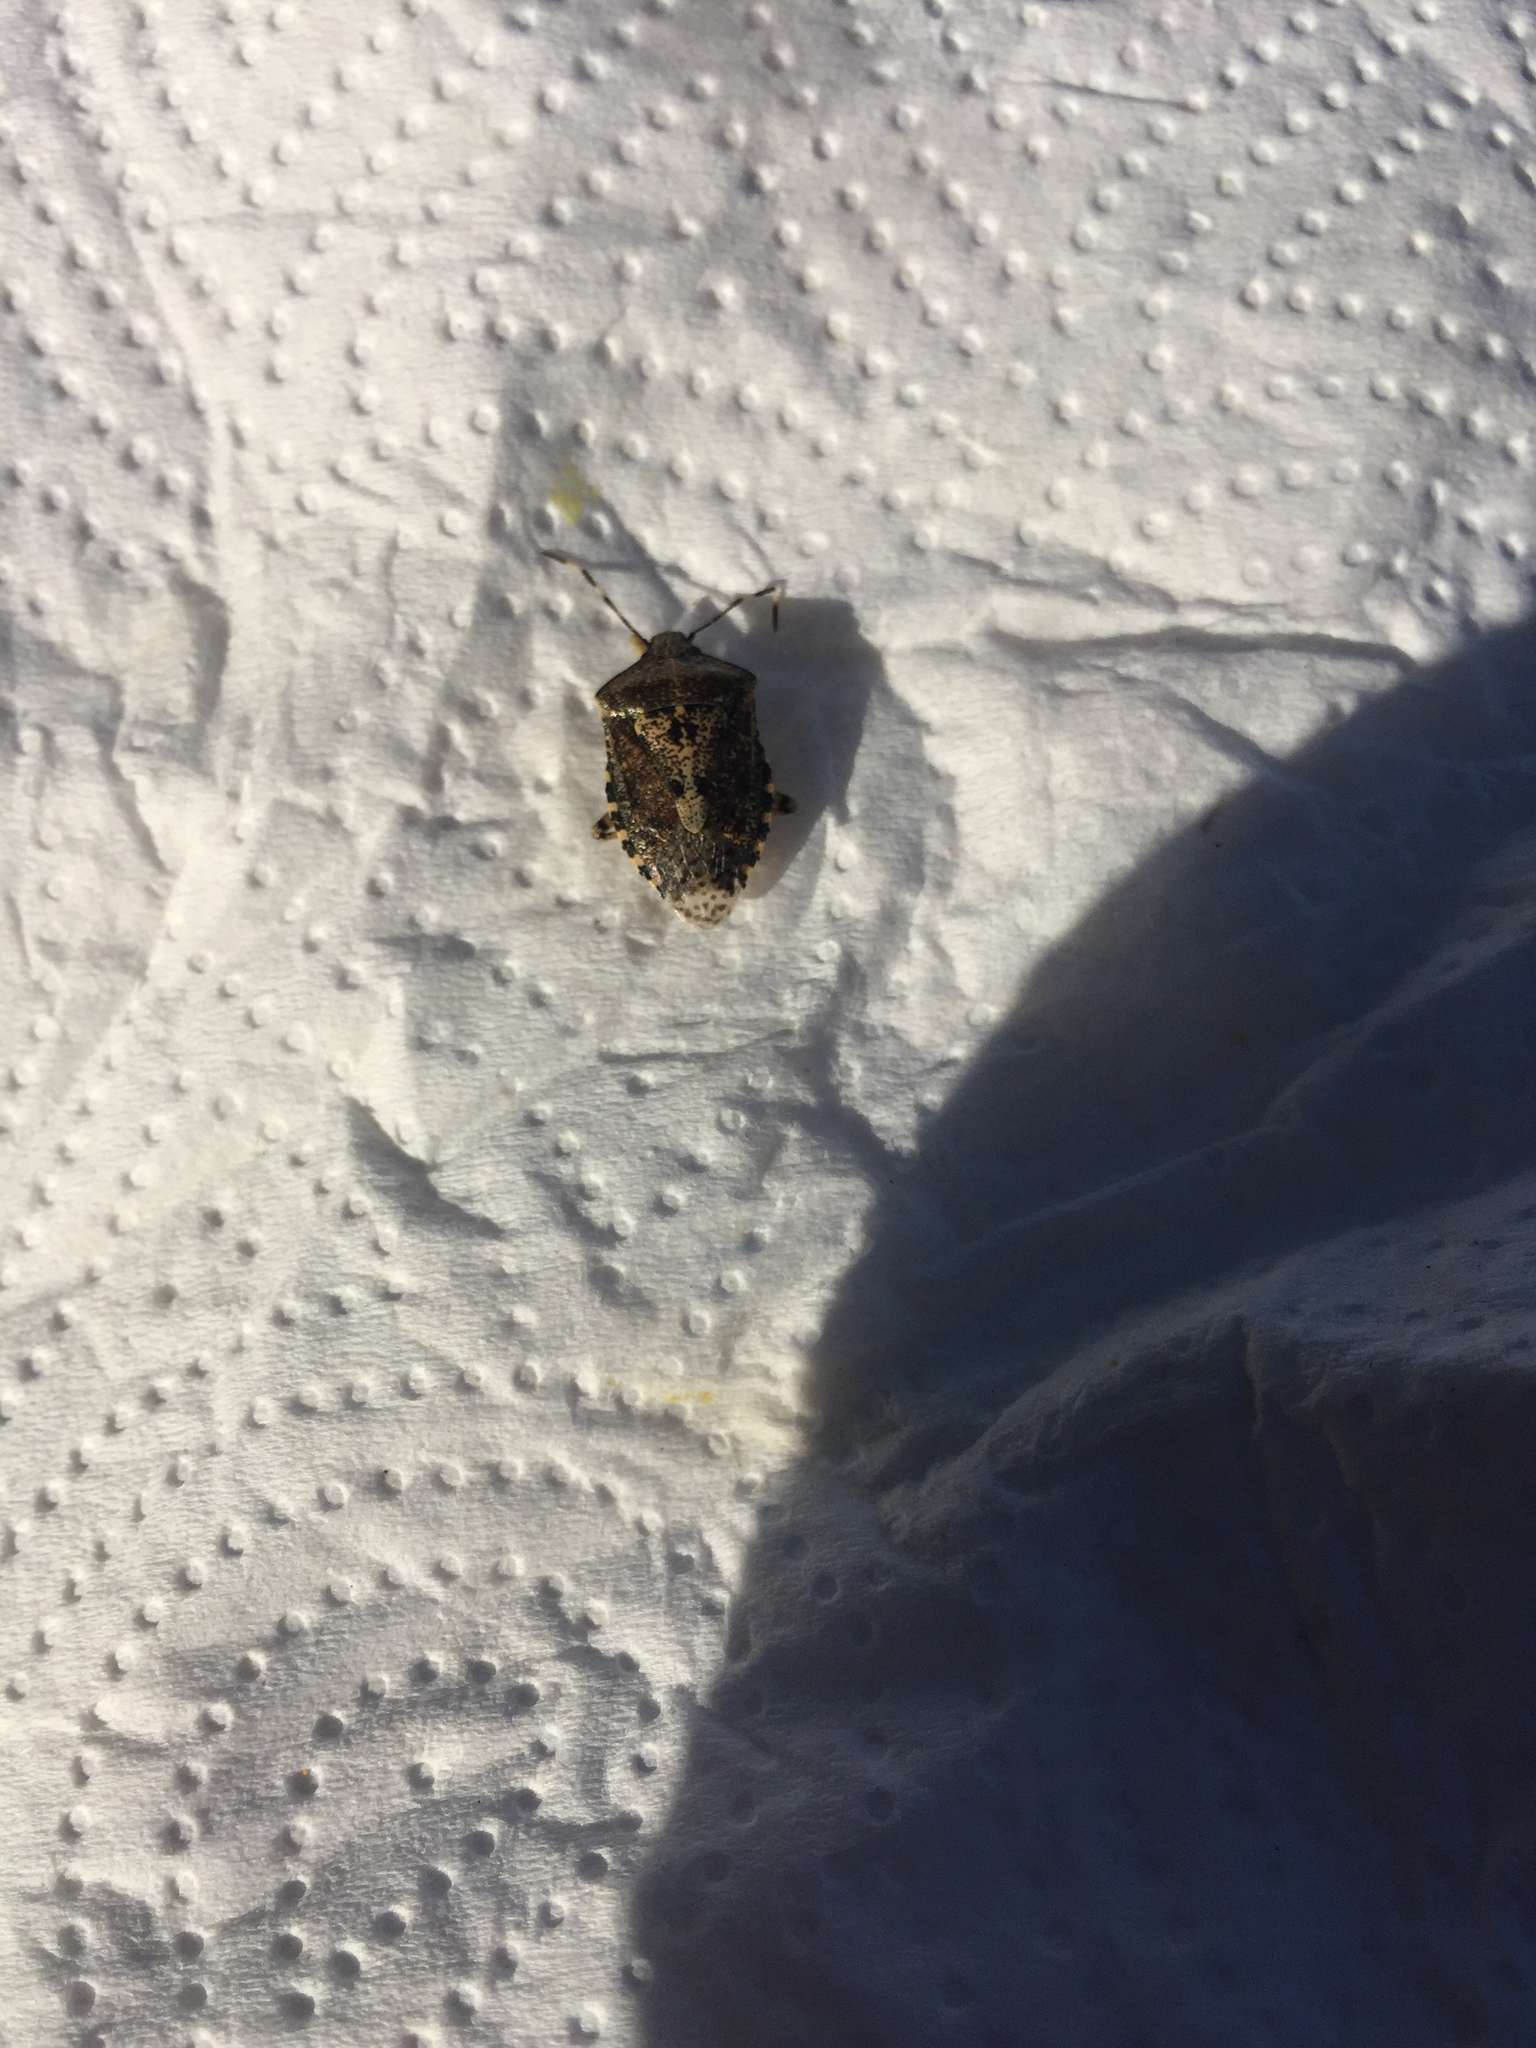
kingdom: Animalia
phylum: Arthropoda
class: Insecta
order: Hemiptera
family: Pentatomidae
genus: Rhaphigaster
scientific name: Rhaphigaster nebulosa
